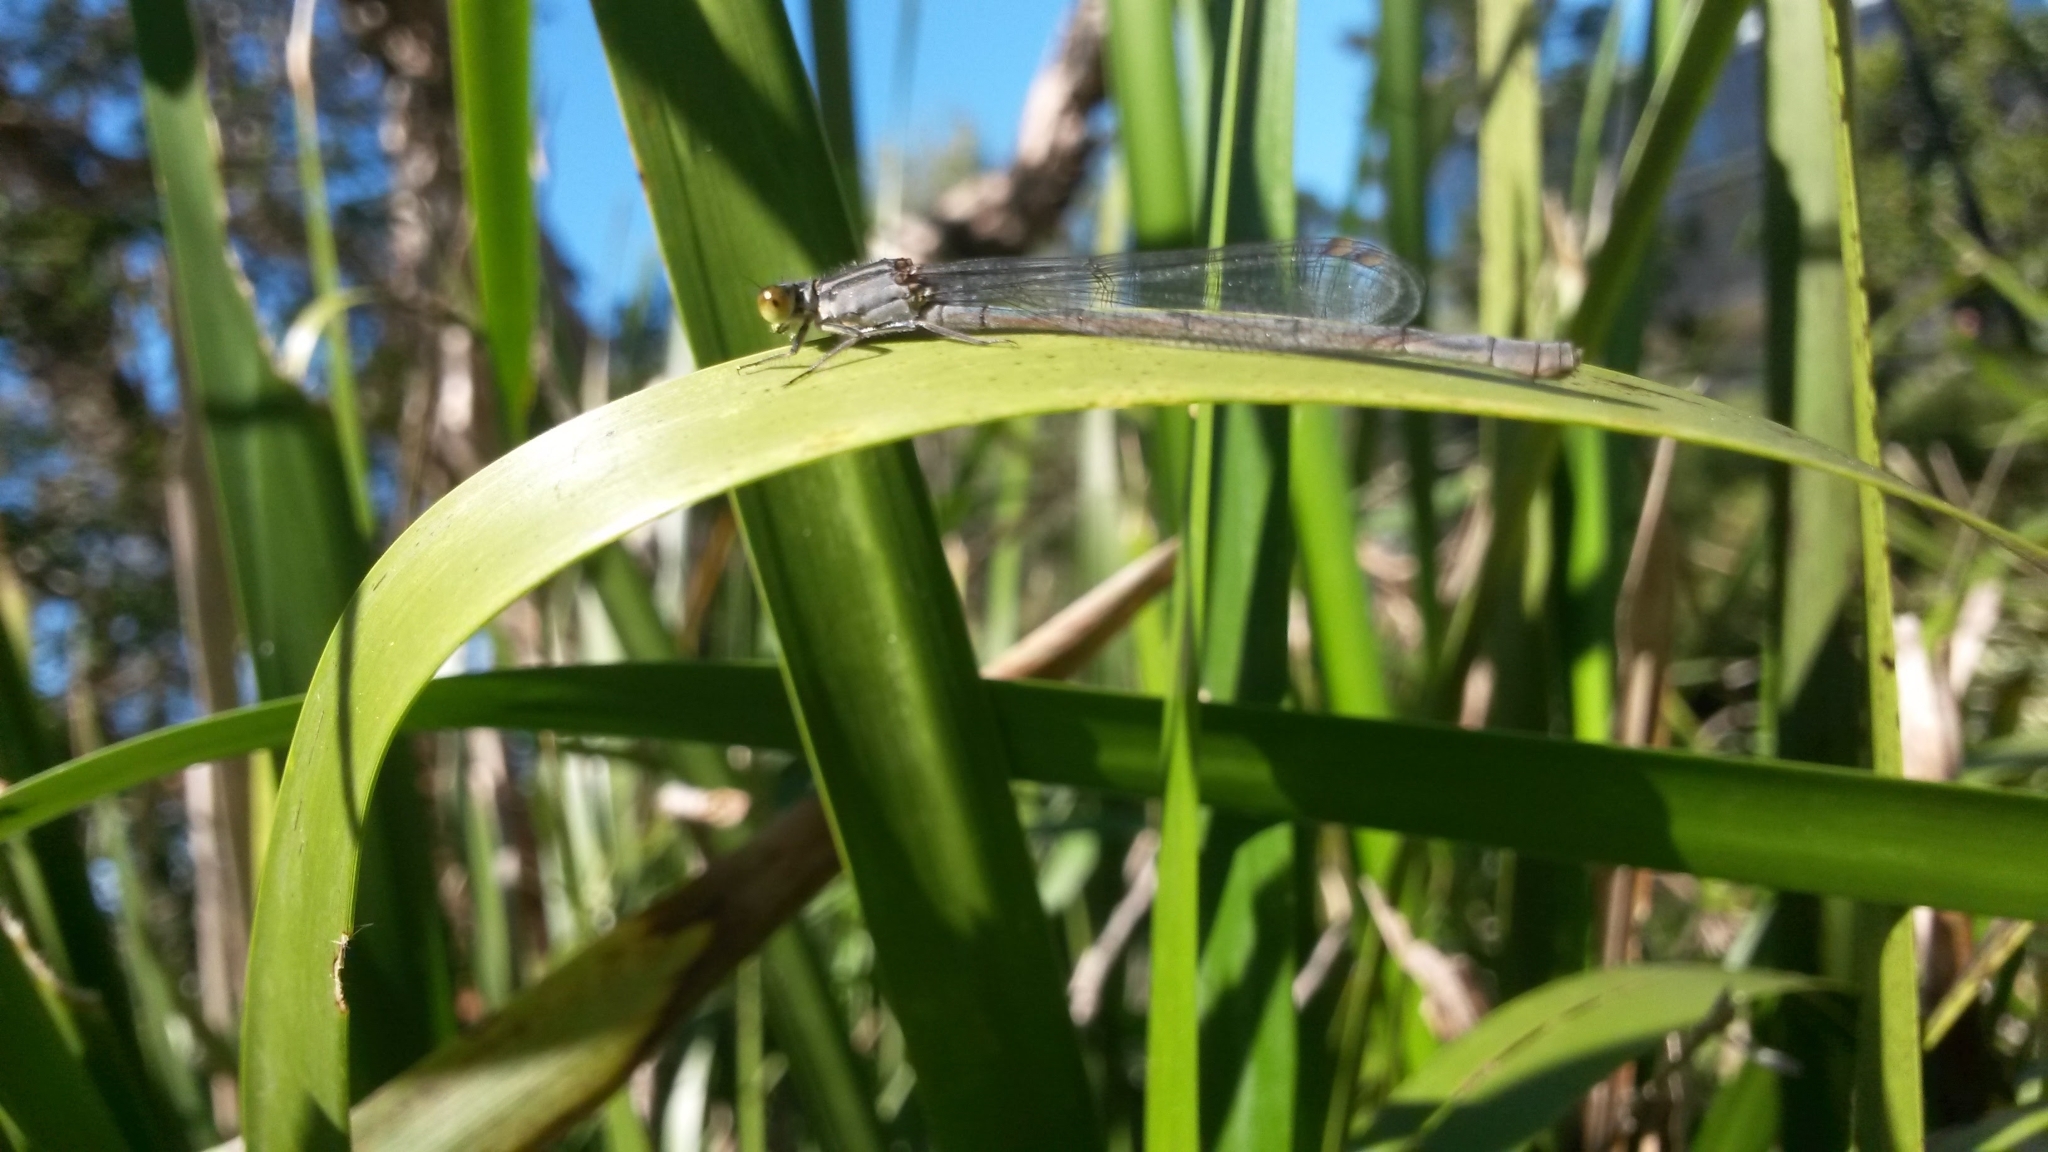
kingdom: Animalia
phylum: Arthropoda
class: Insecta
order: Odonata
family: Coenagrionidae
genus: Ischnura
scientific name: Ischnura heterosticta
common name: Common bluetail
